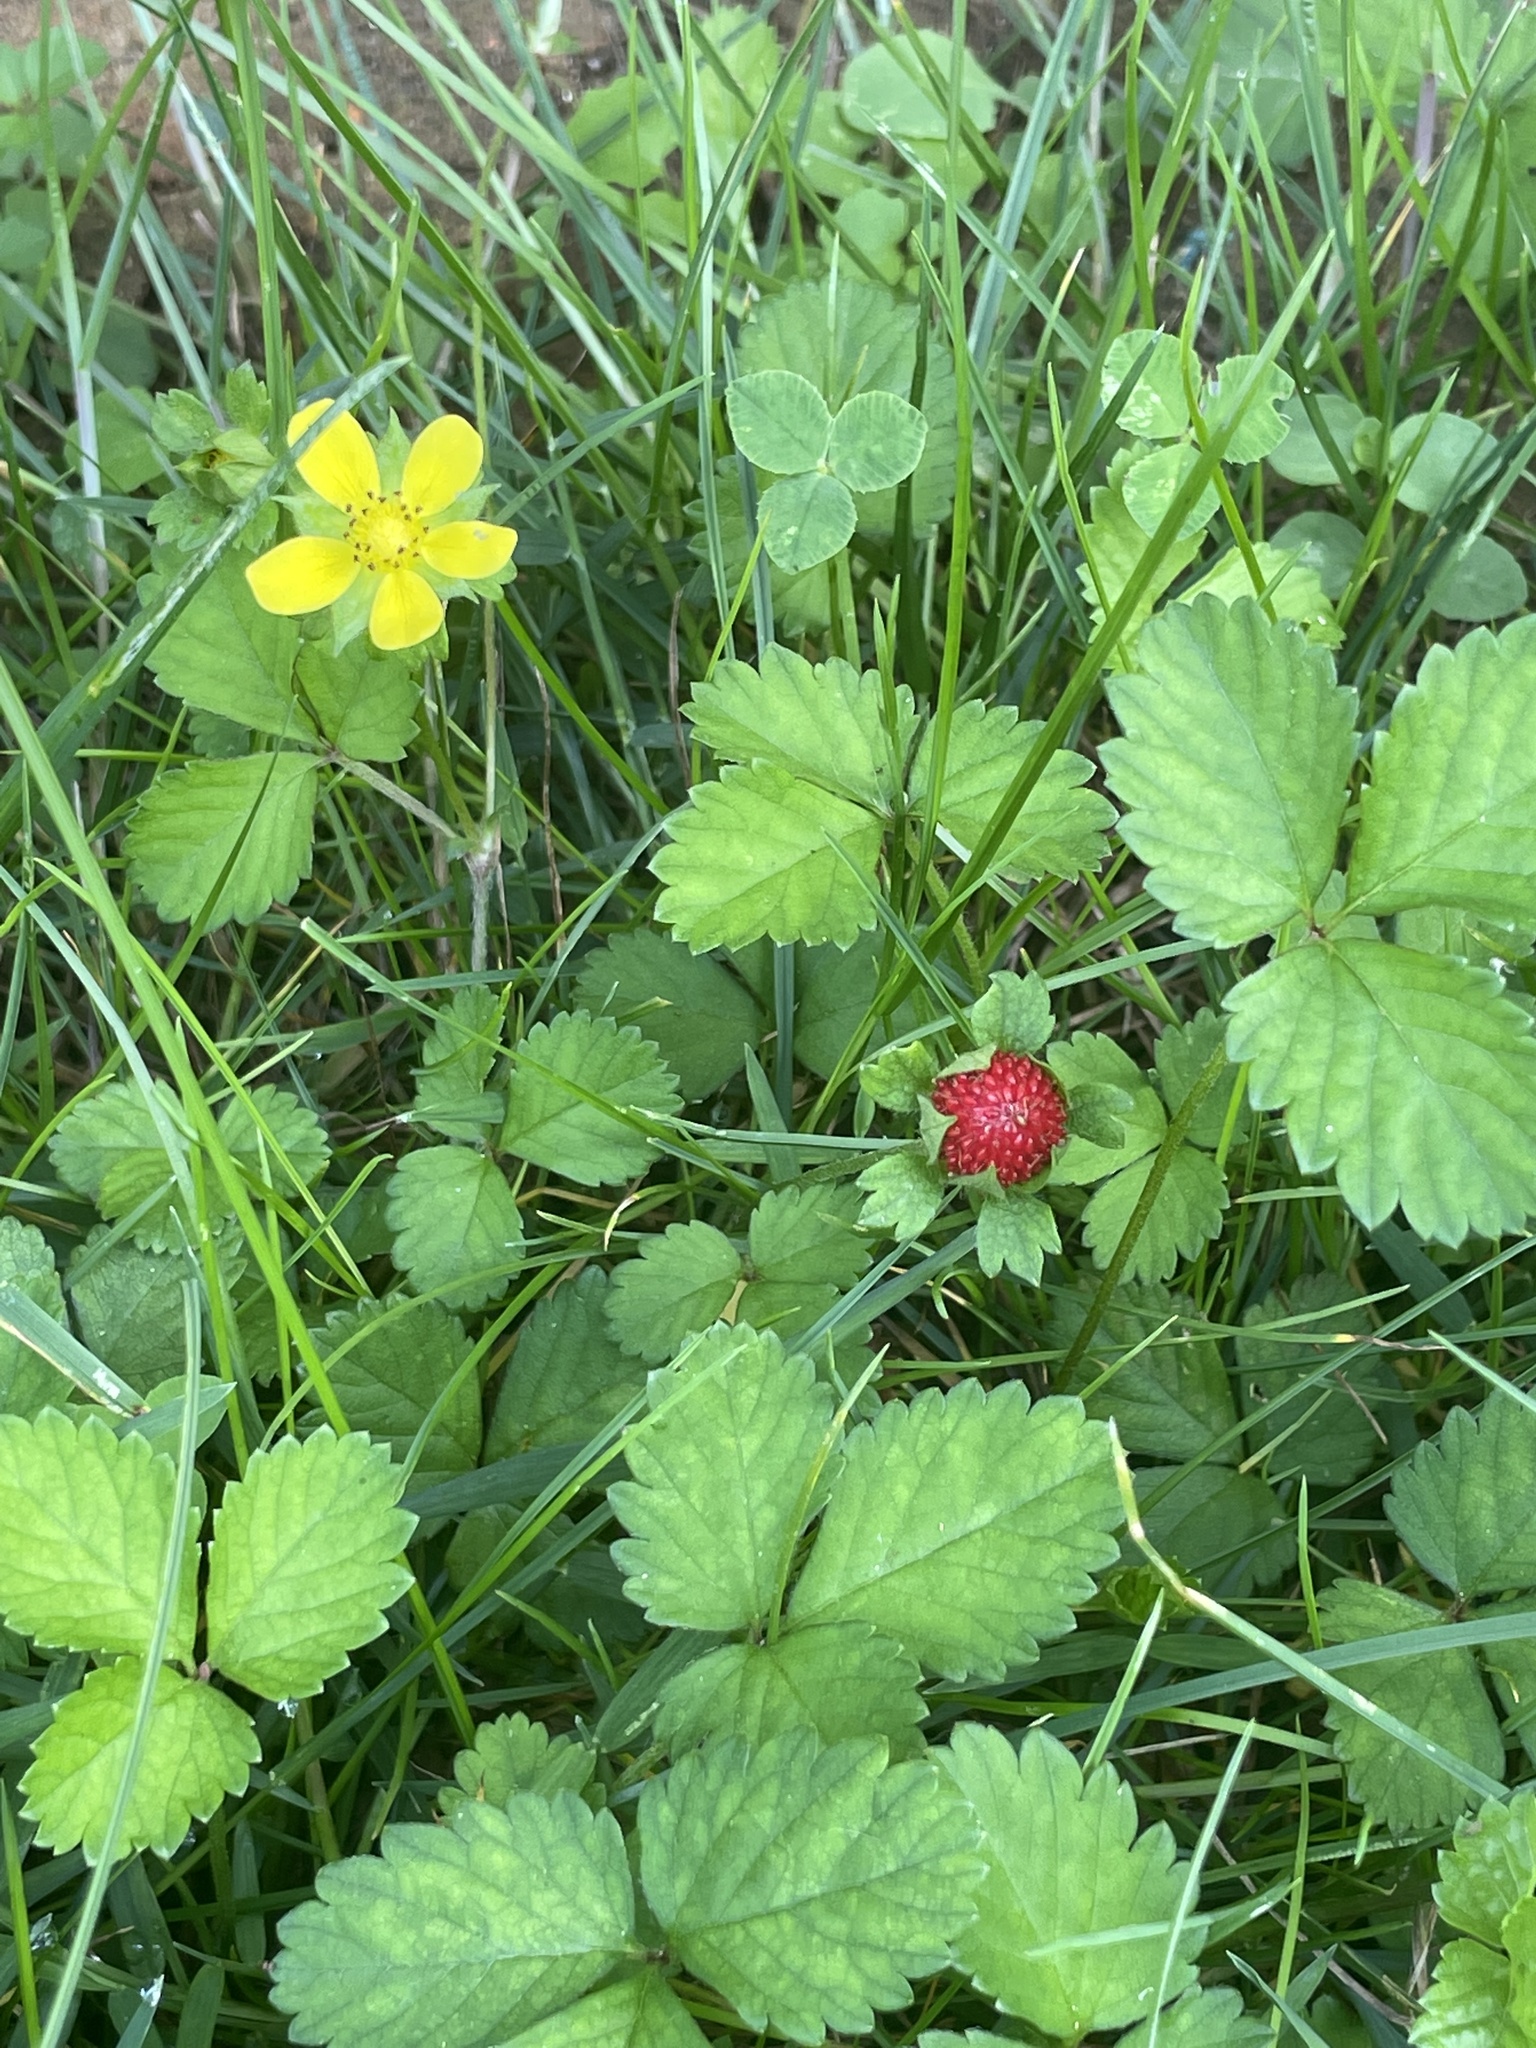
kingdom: Plantae
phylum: Tracheophyta
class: Magnoliopsida
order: Rosales
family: Rosaceae
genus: Potentilla
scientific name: Potentilla indica
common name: Yellow-flowered strawberry
